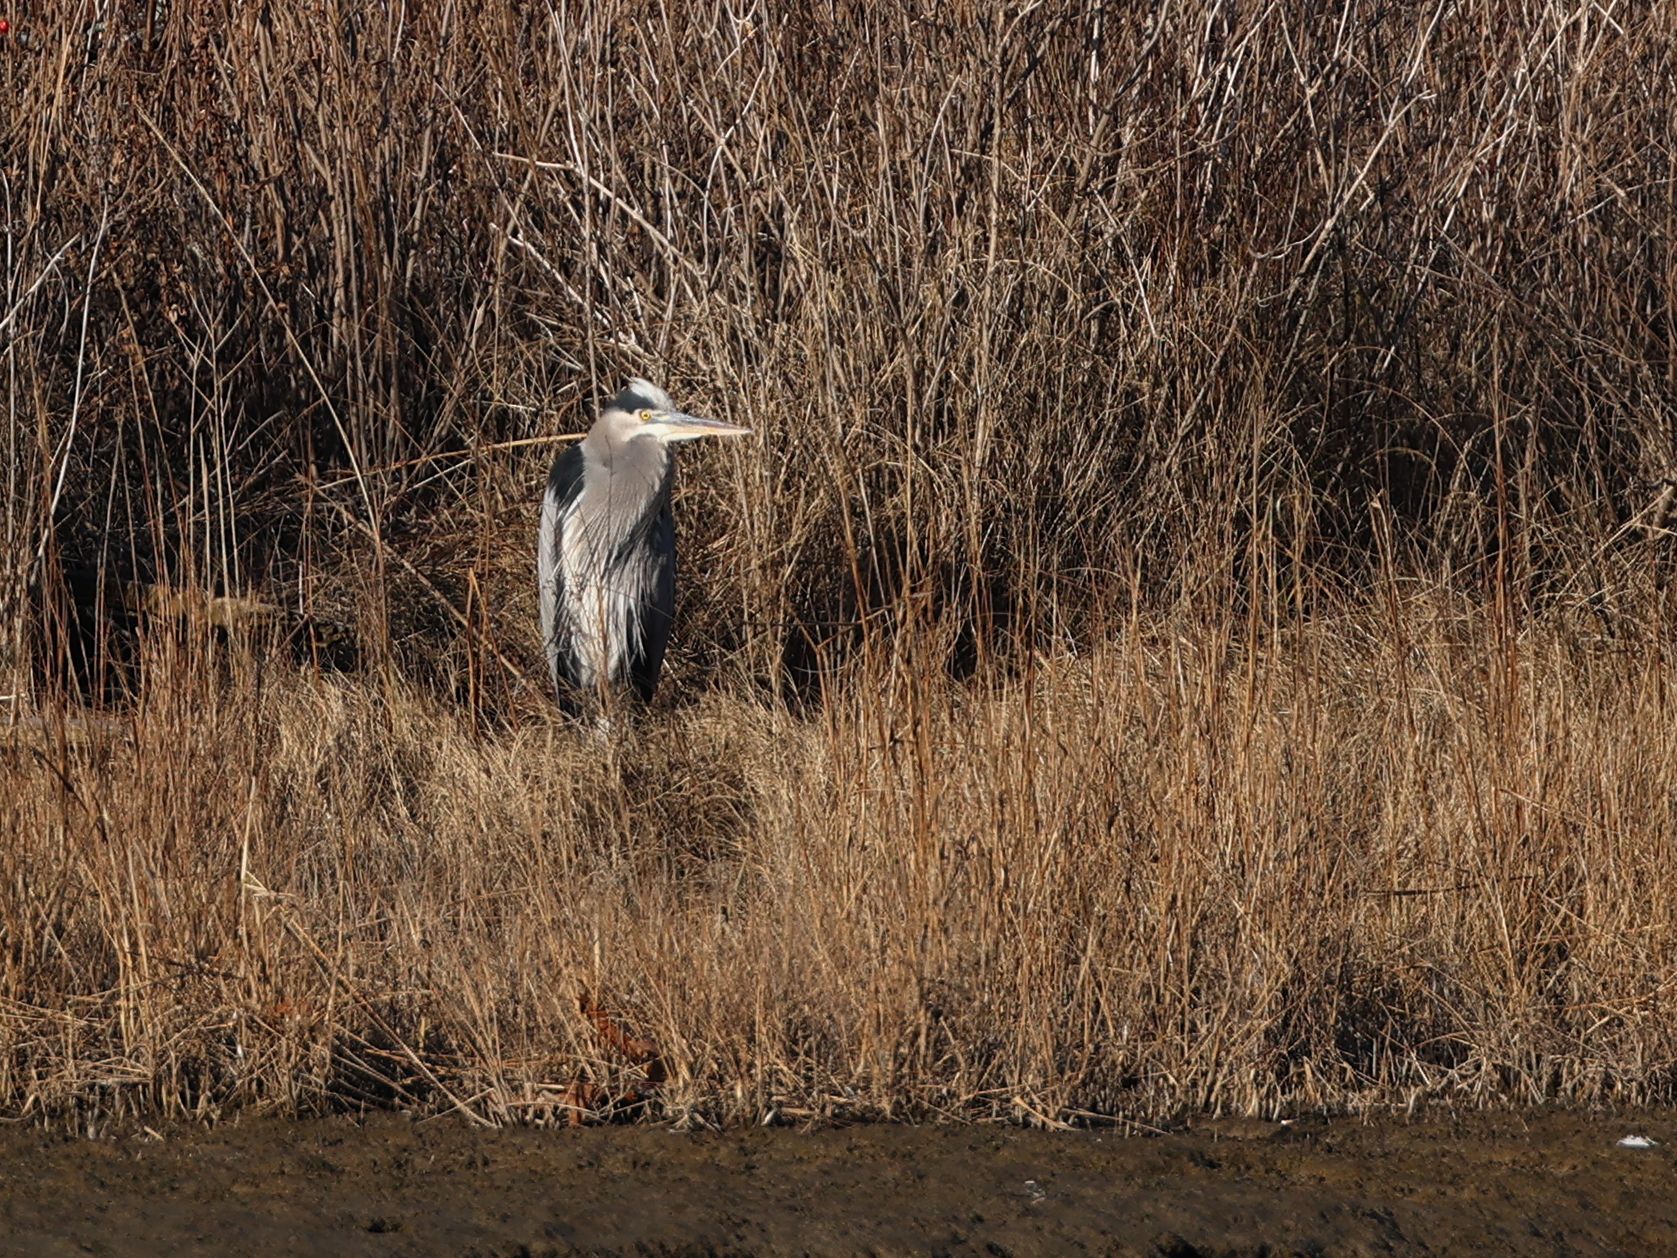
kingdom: Animalia
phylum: Chordata
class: Aves
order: Pelecaniformes
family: Ardeidae
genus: Ardea
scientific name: Ardea herodias
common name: Great blue heron
